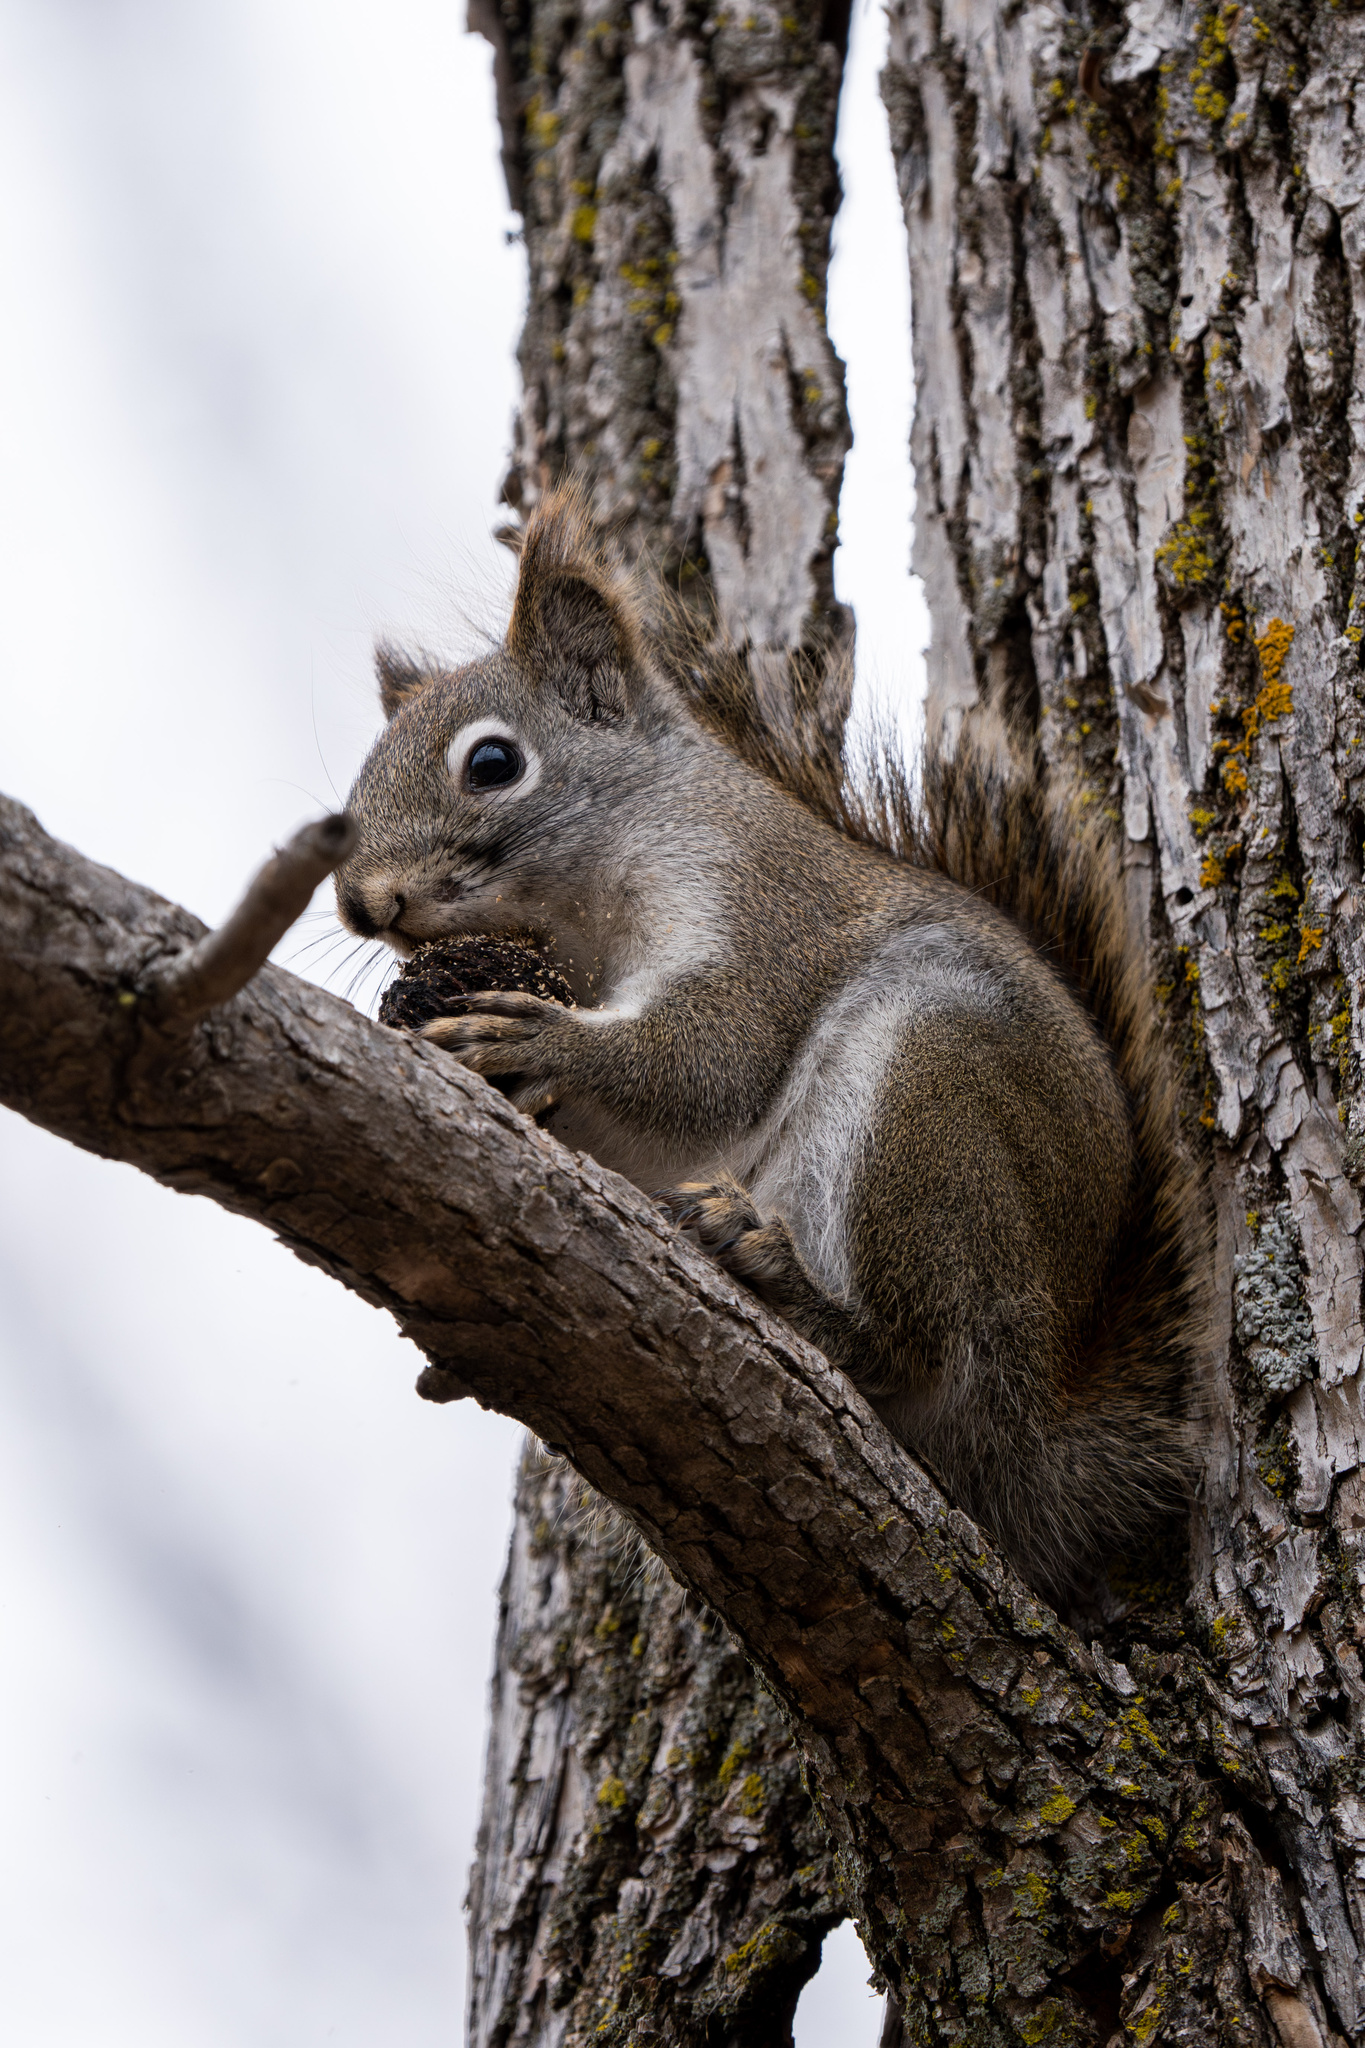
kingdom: Animalia
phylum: Chordata
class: Mammalia
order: Rodentia
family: Sciuridae
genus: Tamiasciurus
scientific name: Tamiasciurus hudsonicus
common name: Red squirrel
